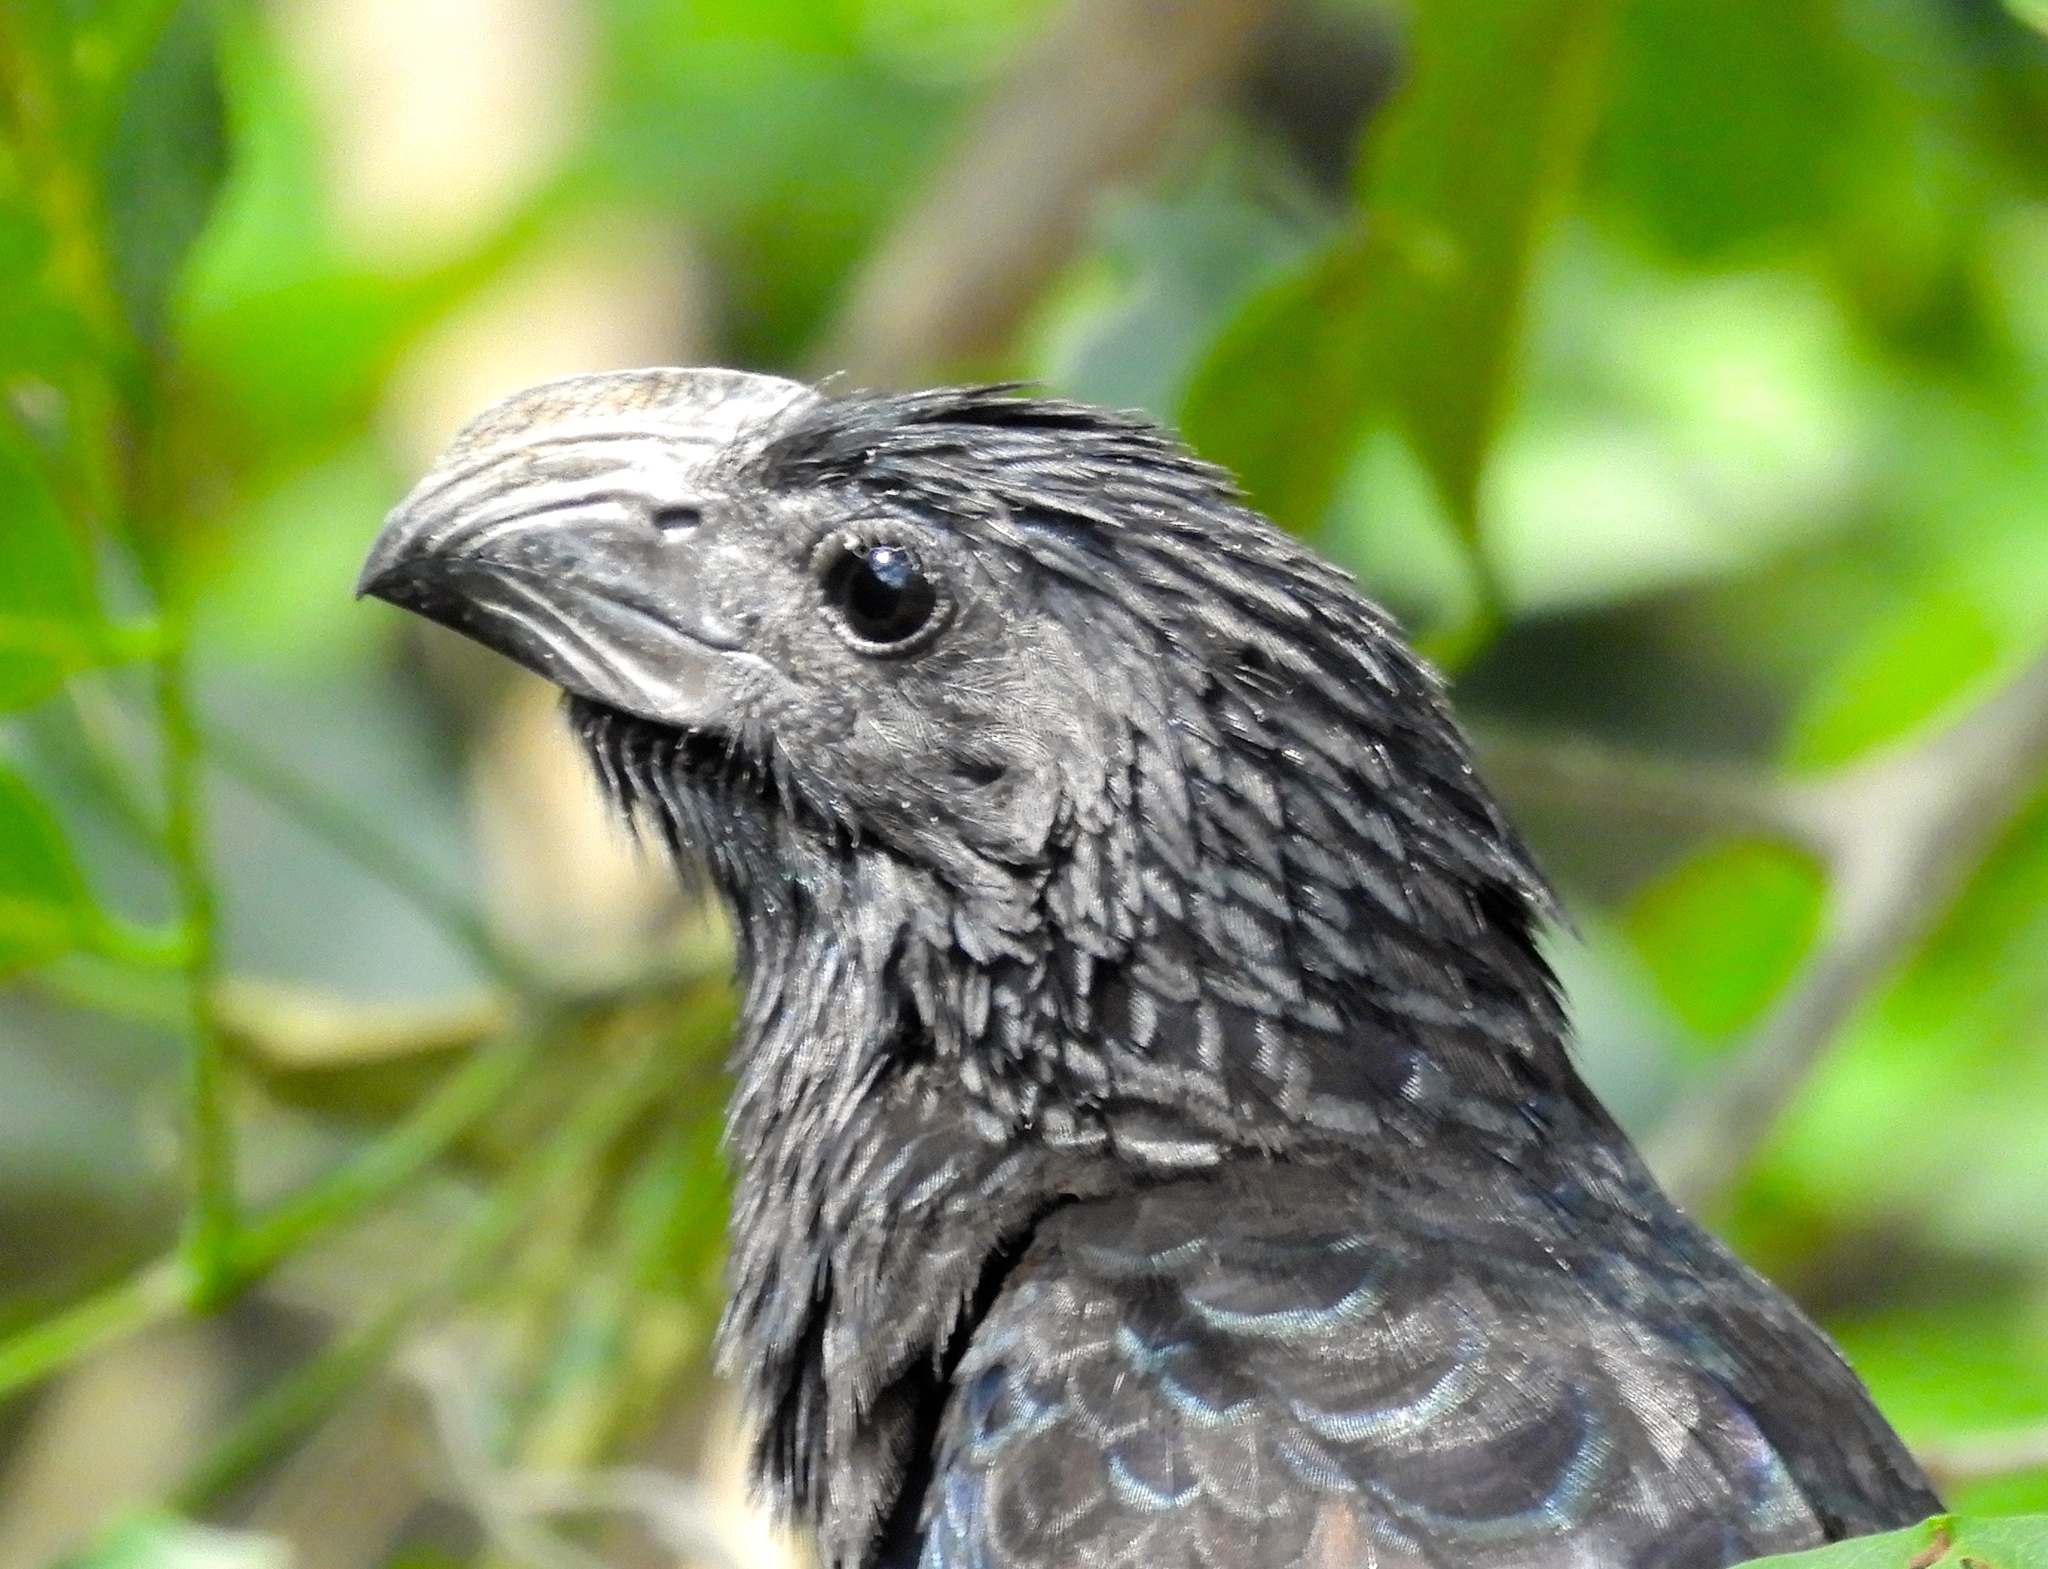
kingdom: Animalia
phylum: Chordata
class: Aves
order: Cuculiformes
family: Cuculidae
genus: Crotophaga
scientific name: Crotophaga sulcirostris
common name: Groove-billed ani
